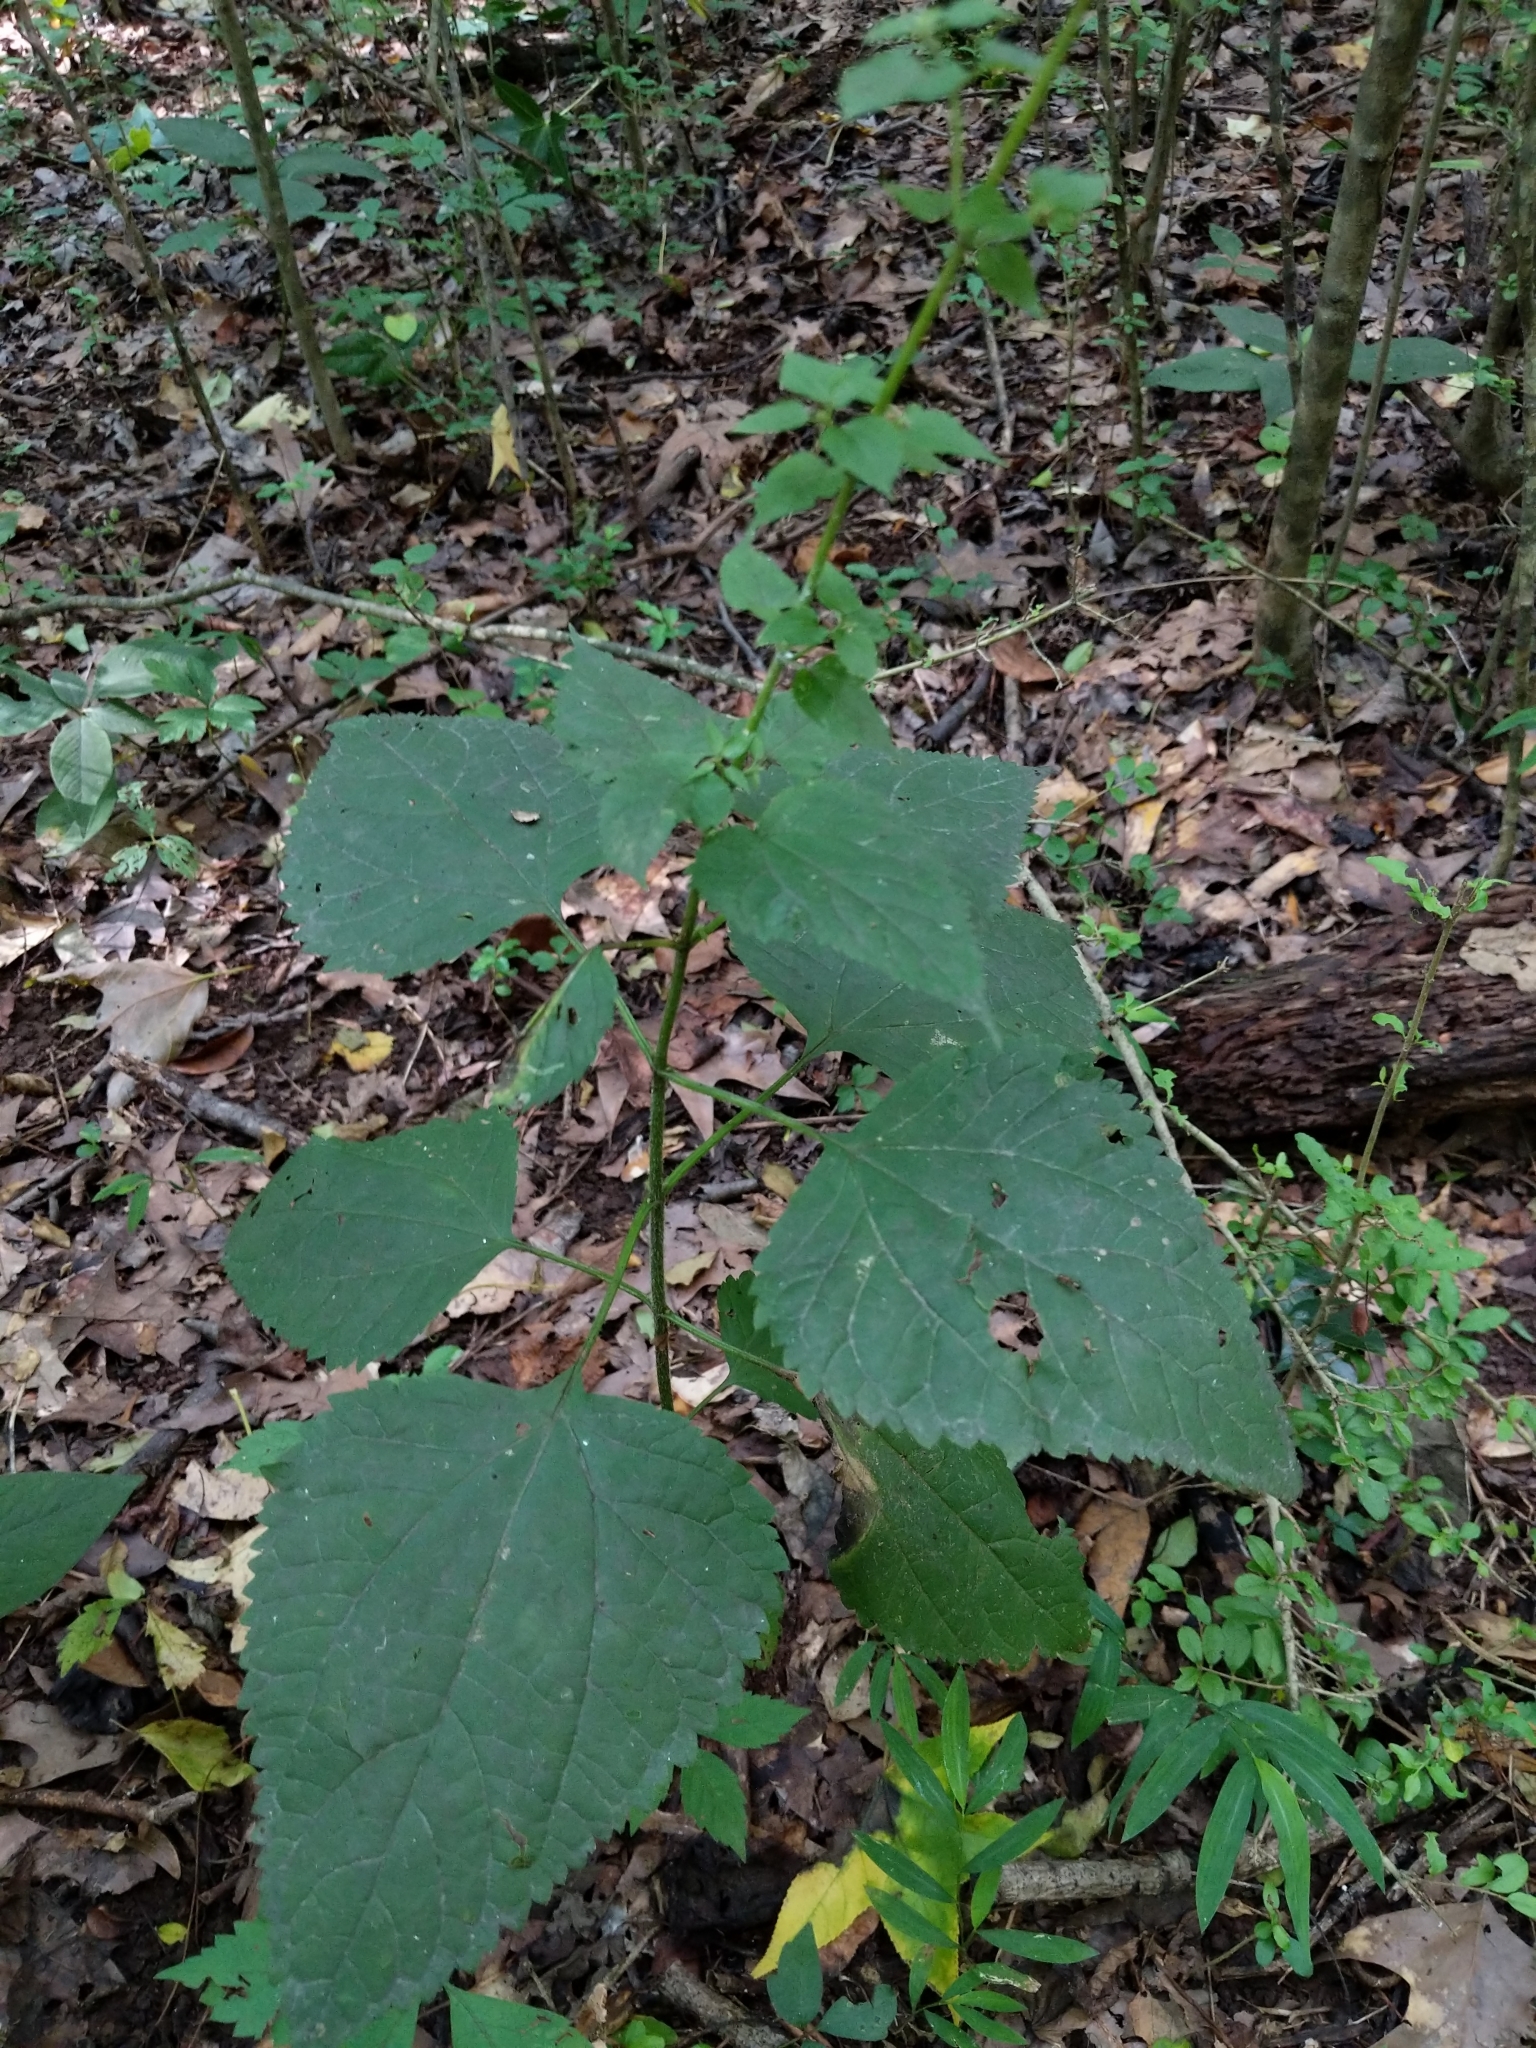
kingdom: Plantae
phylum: Tracheophyta
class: Magnoliopsida
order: Asterales
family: Asteraceae
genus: Ageratina
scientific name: Ageratina altissima
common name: White snakeroot
